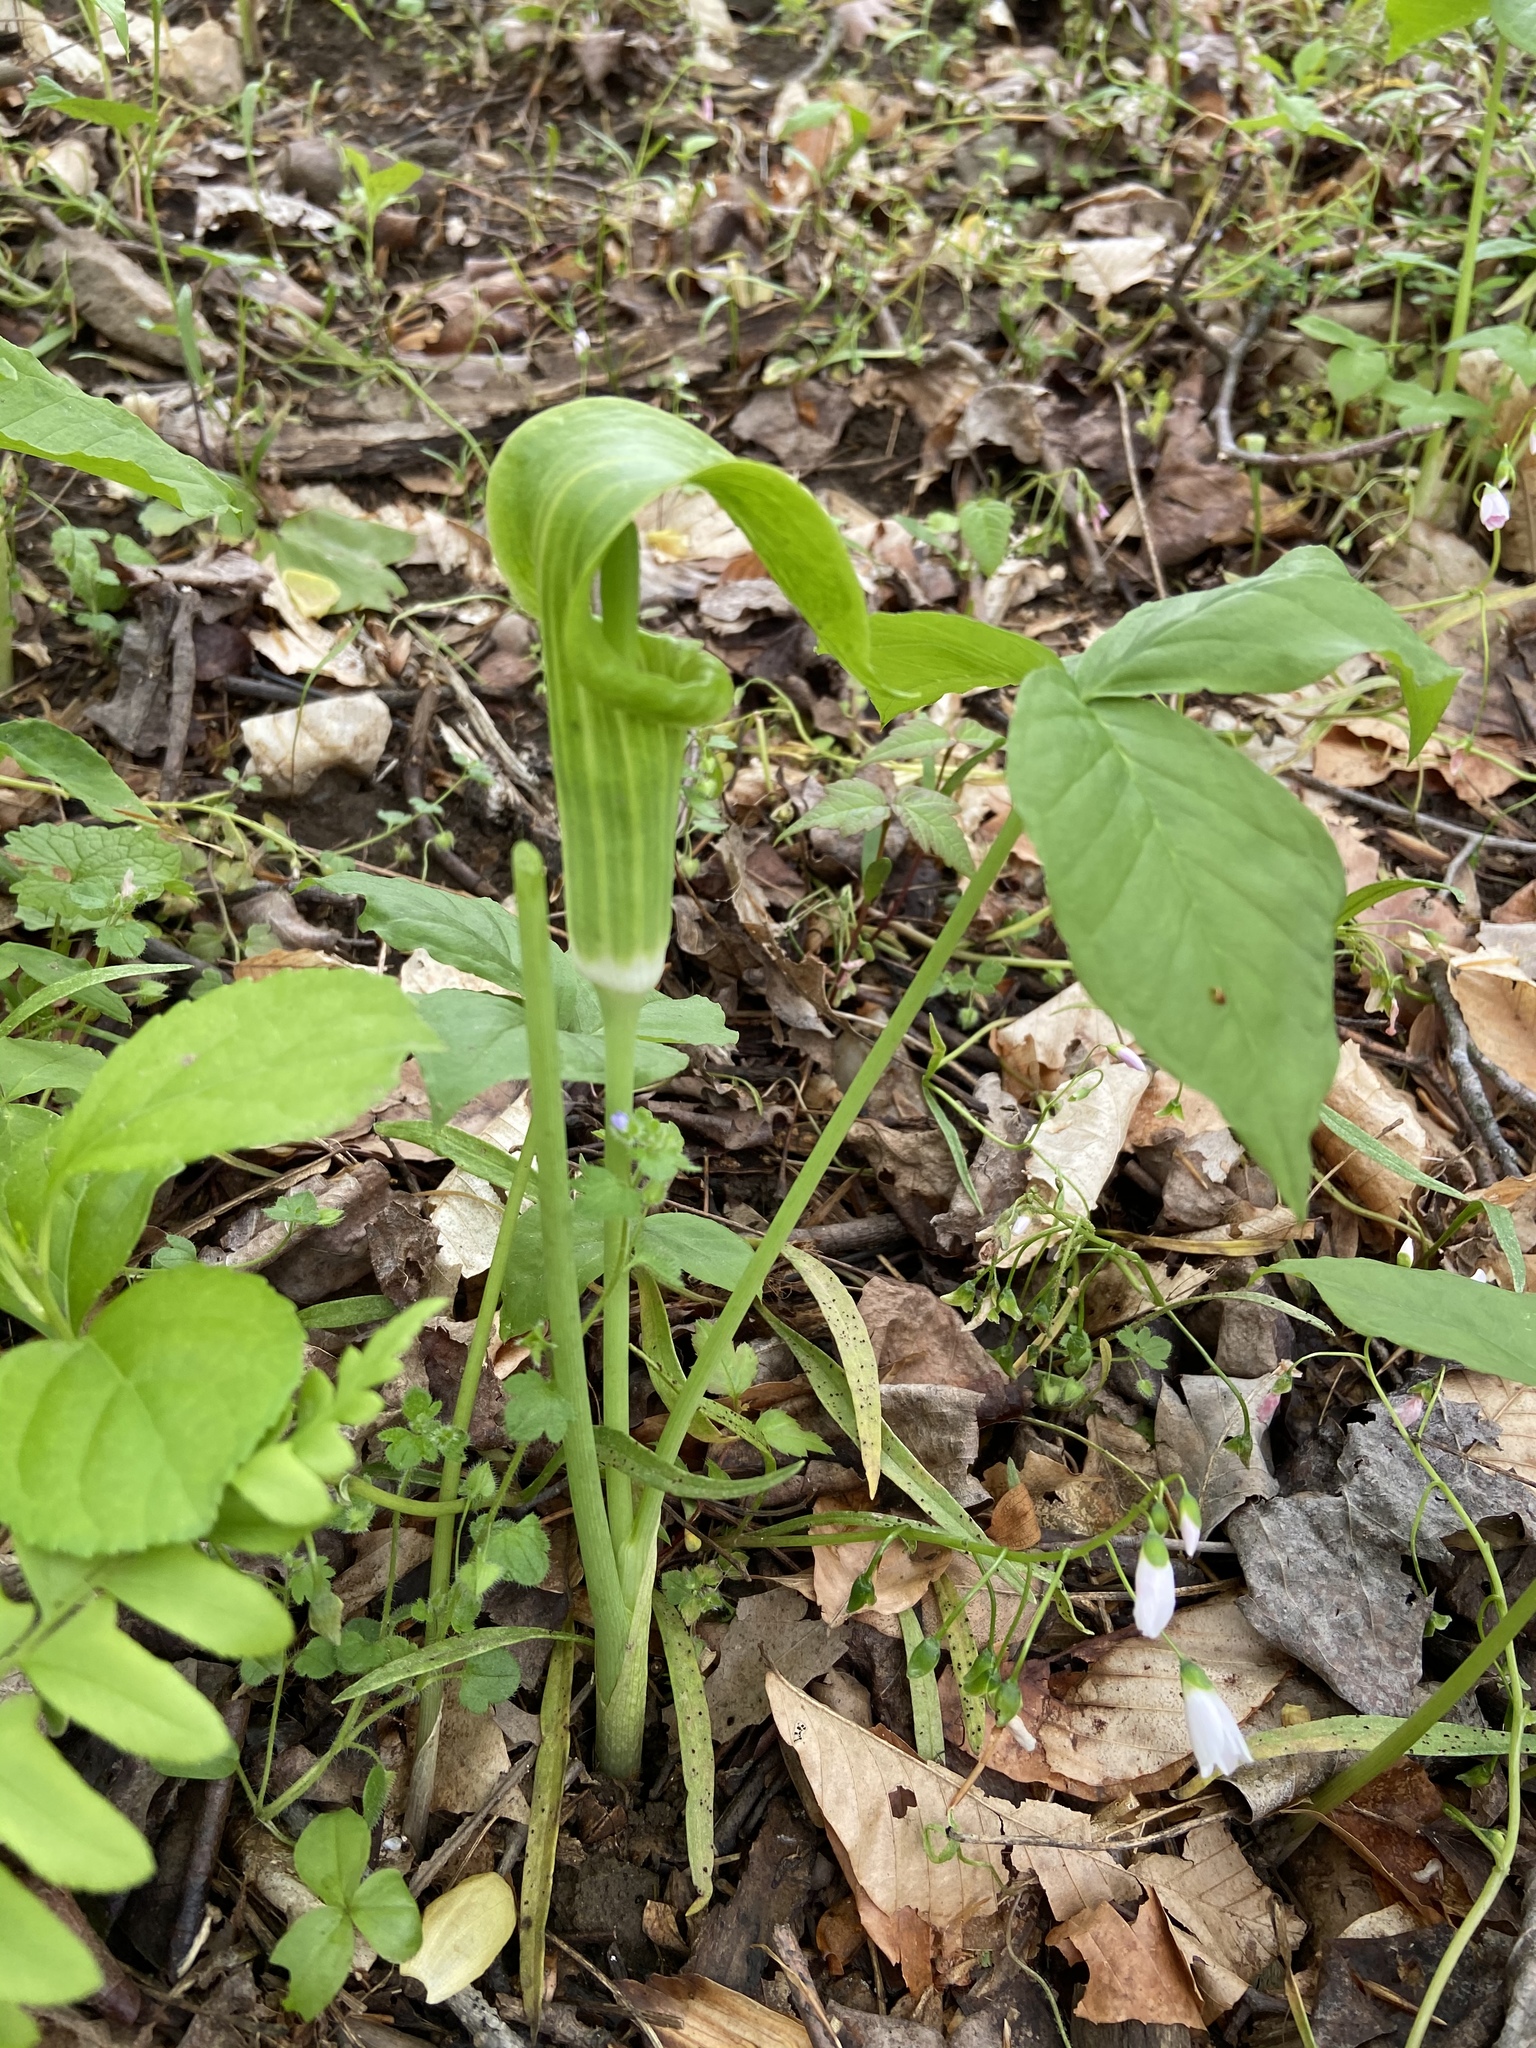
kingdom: Plantae
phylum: Tracheophyta
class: Liliopsida
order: Alismatales
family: Araceae
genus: Arisaema
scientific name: Arisaema triphyllum
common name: Jack-in-the-pulpit
